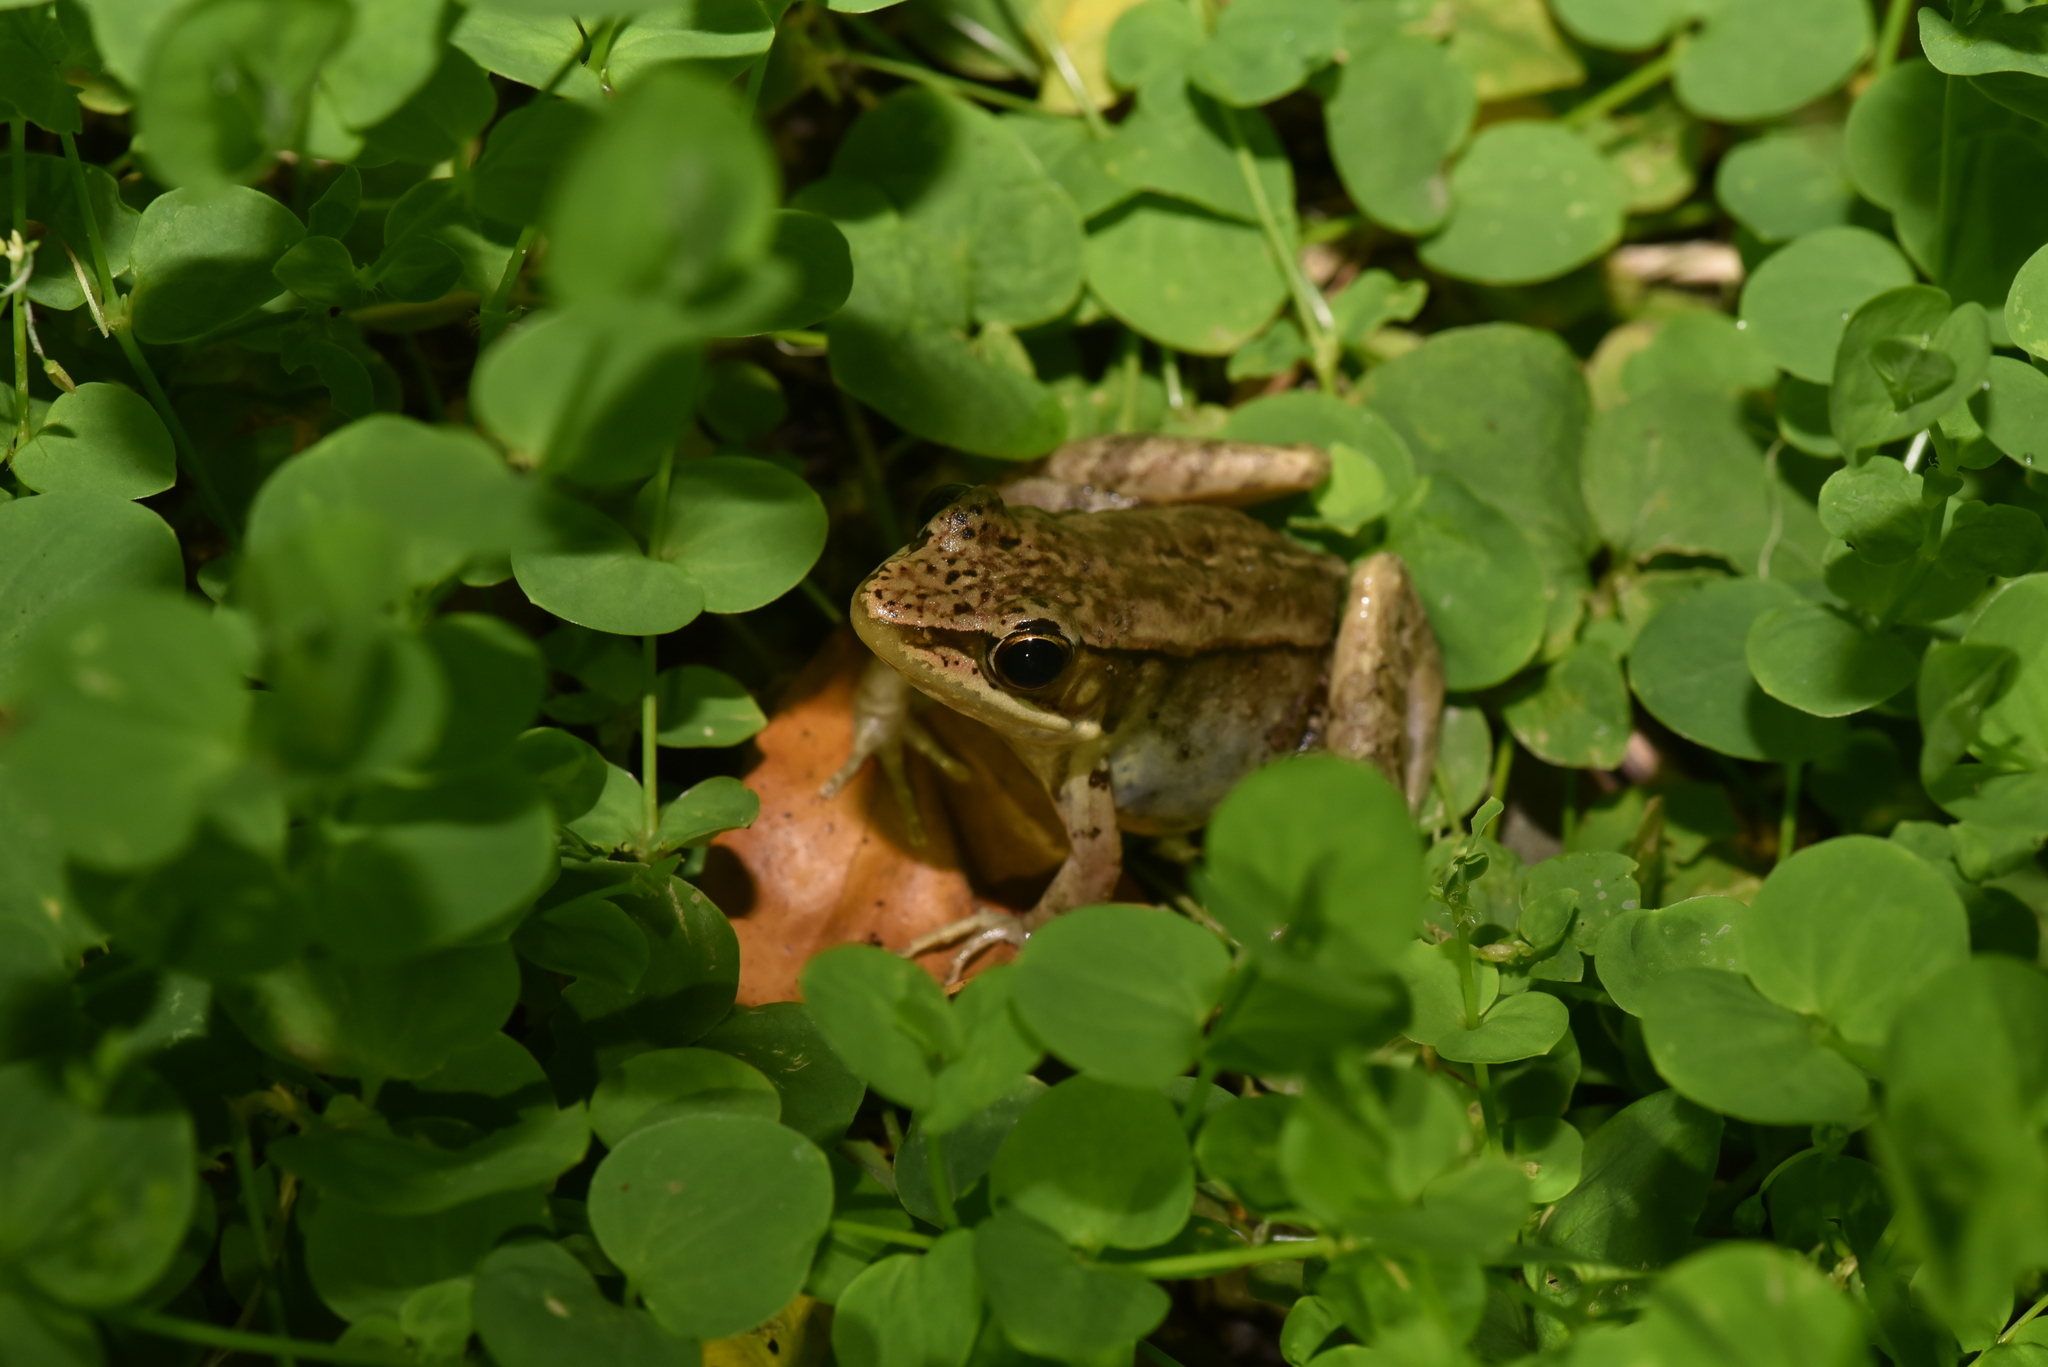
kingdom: Animalia
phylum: Chordata
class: Amphibia
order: Anura
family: Ranidae
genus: Nidirana
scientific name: Nidirana adenopleura
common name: Olive frog
